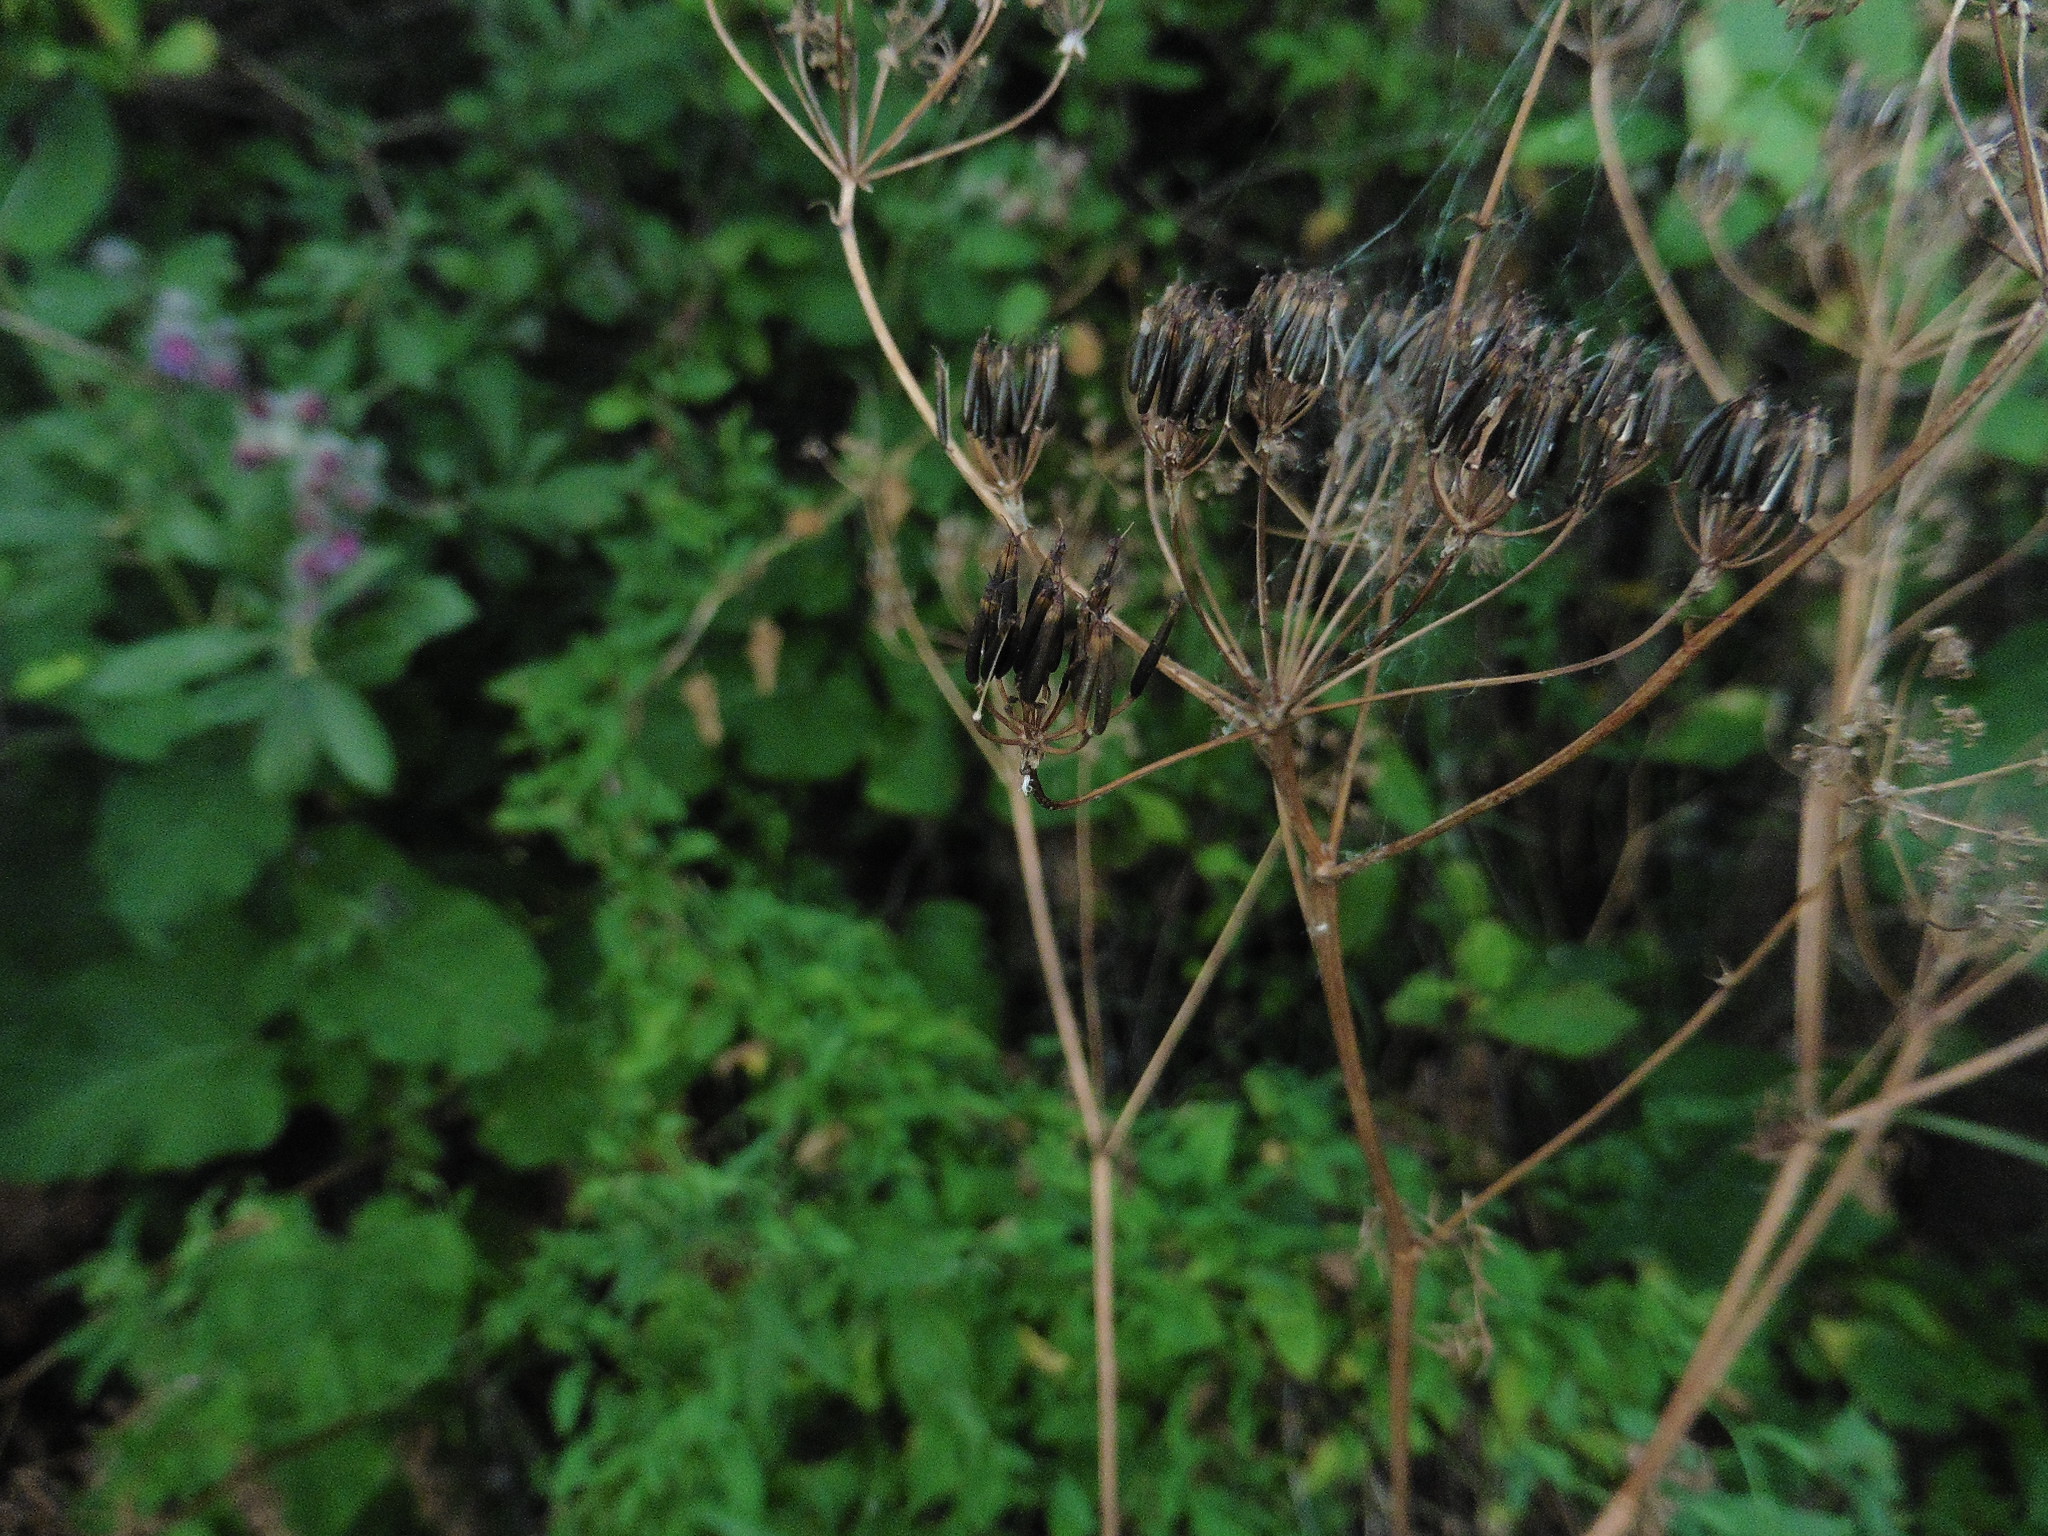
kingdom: Plantae
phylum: Tracheophyta
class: Magnoliopsida
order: Apiales
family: Apiaceae
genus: Anthriscus
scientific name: Anthriscus sylvestris
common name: Cow parsley
